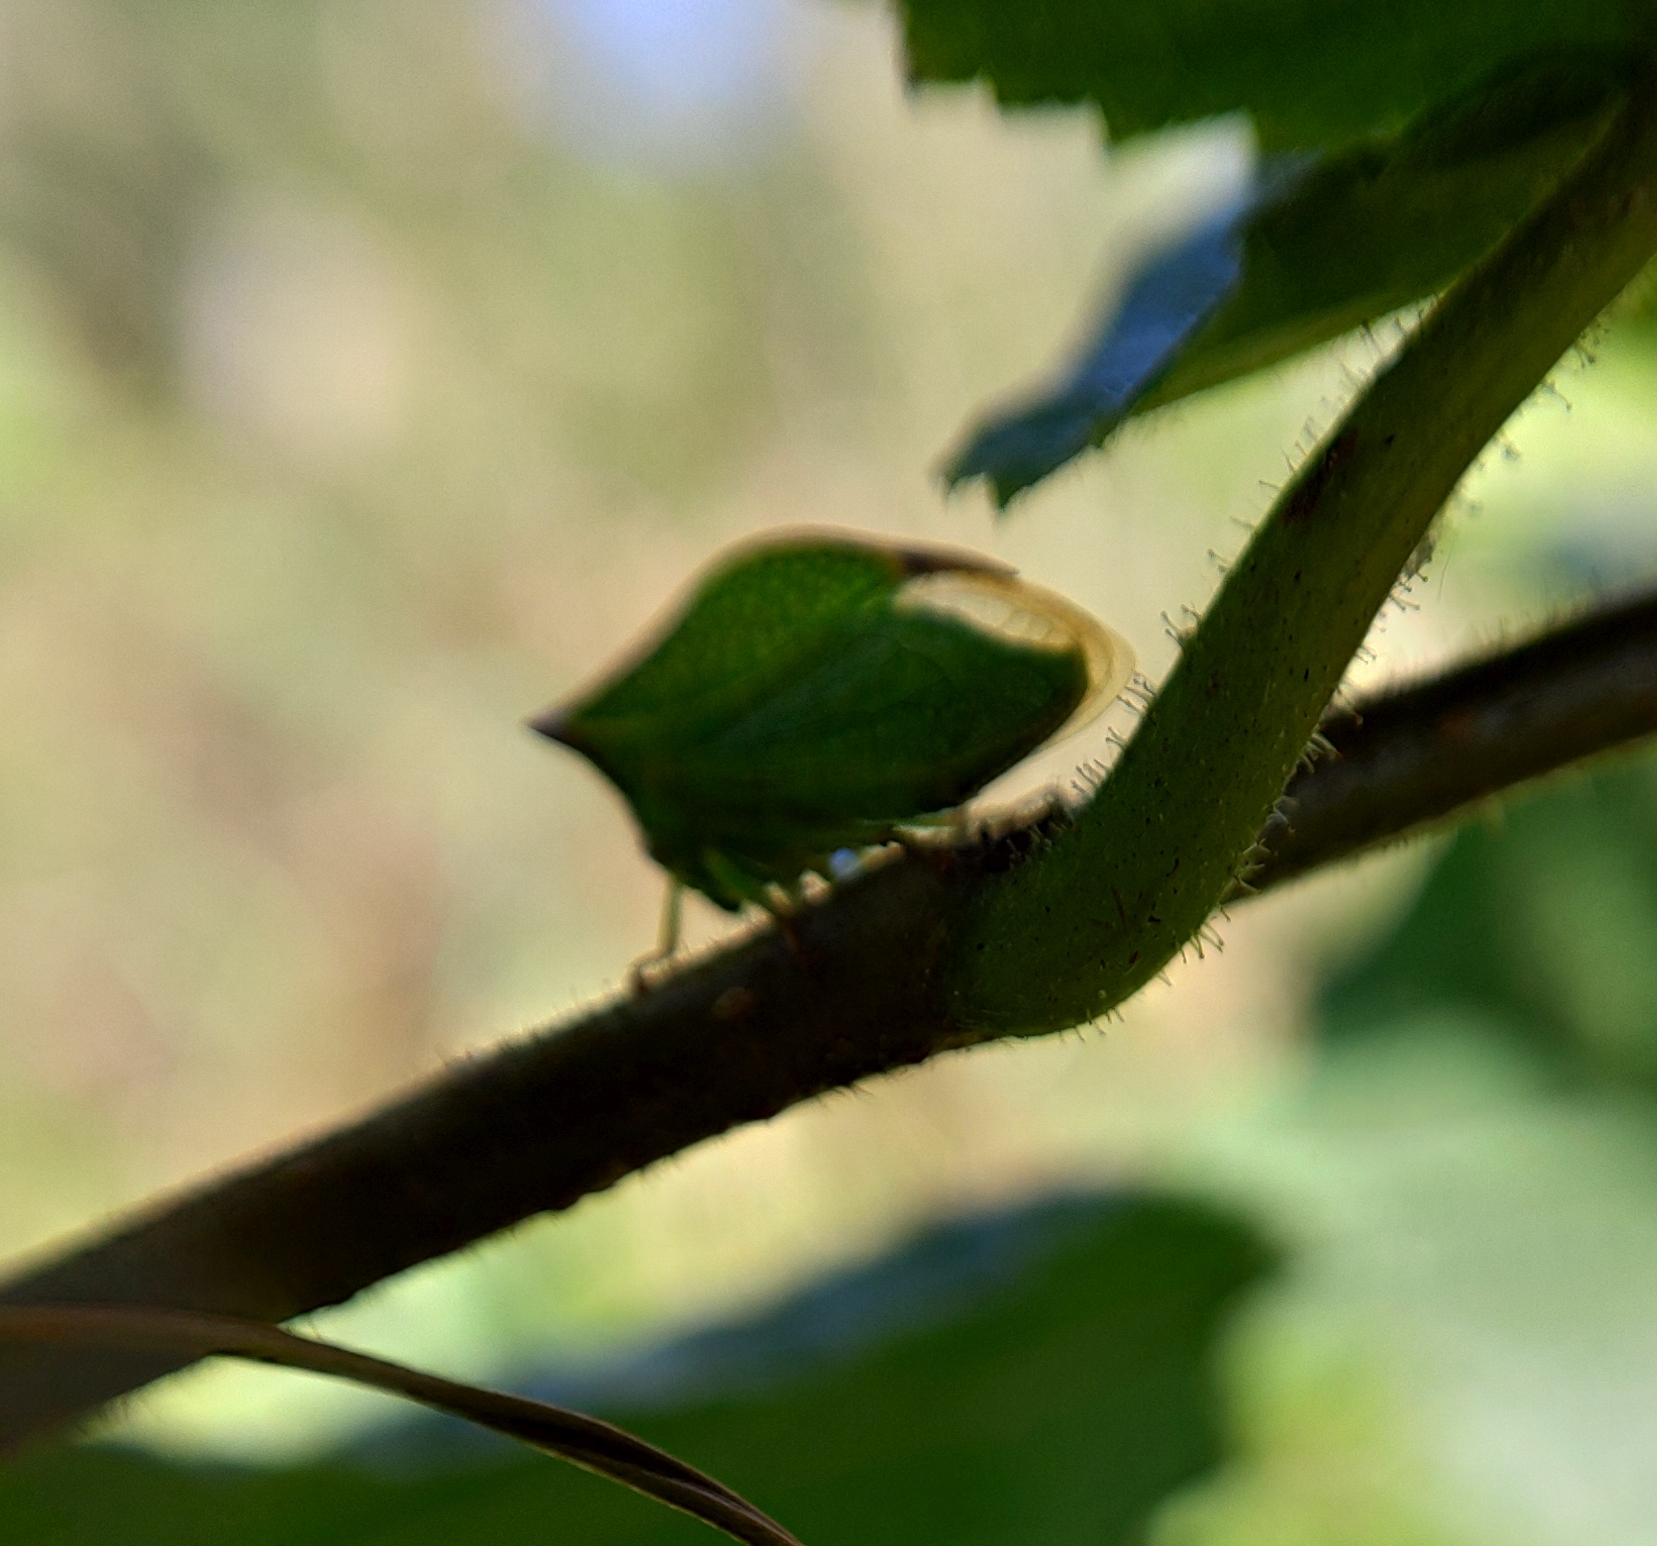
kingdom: Animalia
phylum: Arthropoda
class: Insecta
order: Hemiptera
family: Membracidae
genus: Stictocephala
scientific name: Stictocephala bisonia
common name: American buffalo treehopper
